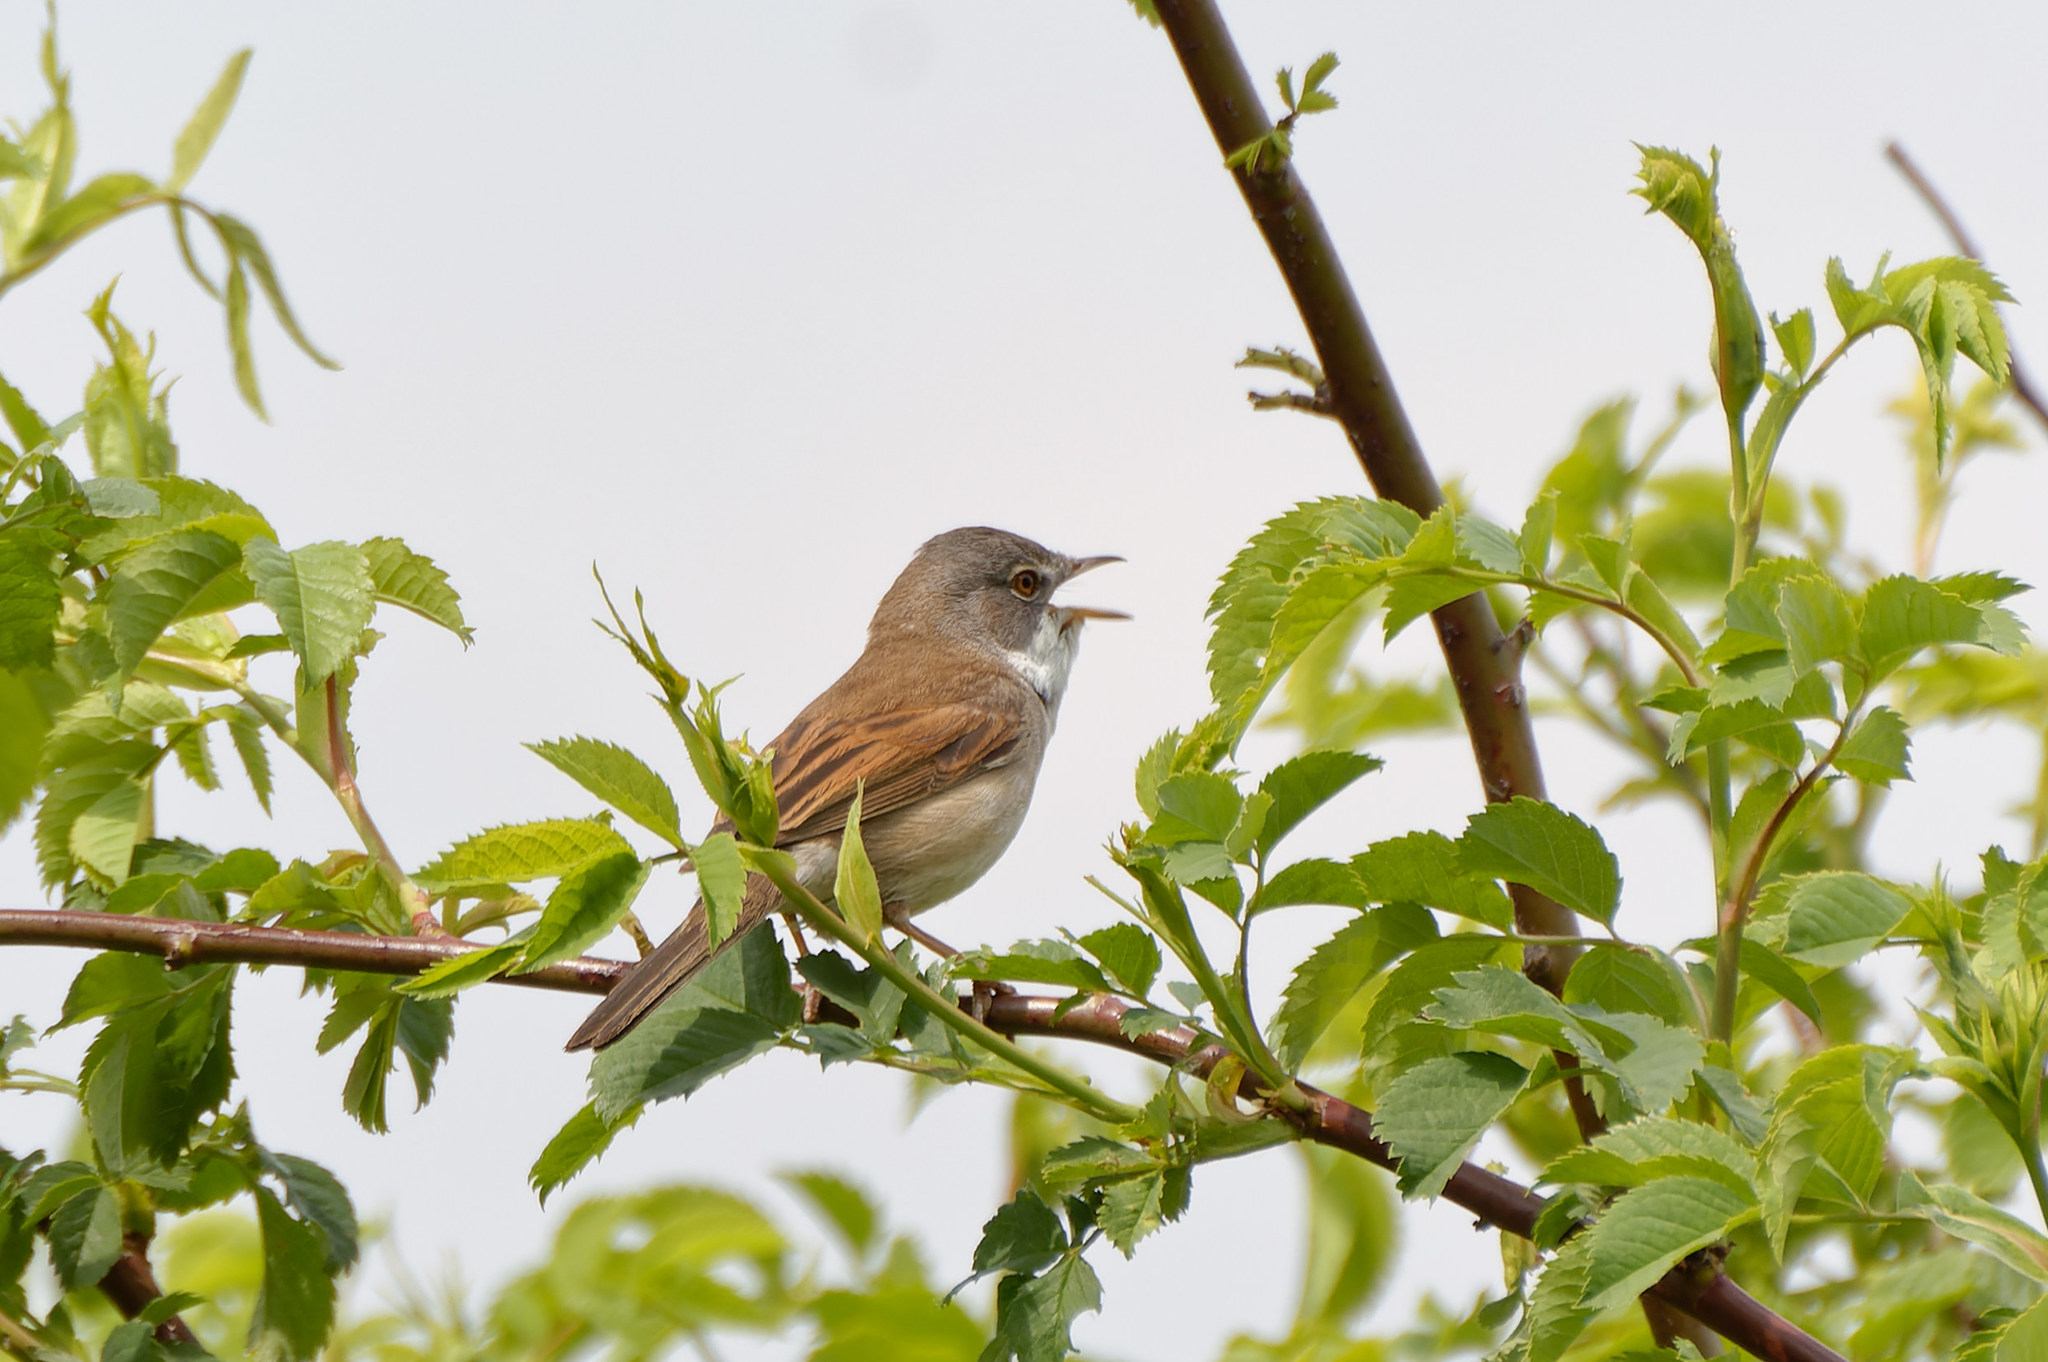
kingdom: Animalia
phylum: Chordata
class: Aves
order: Passeriformes
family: Sylviidae
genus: Sylvia
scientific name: Sylvia communis
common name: Common whitethroat
